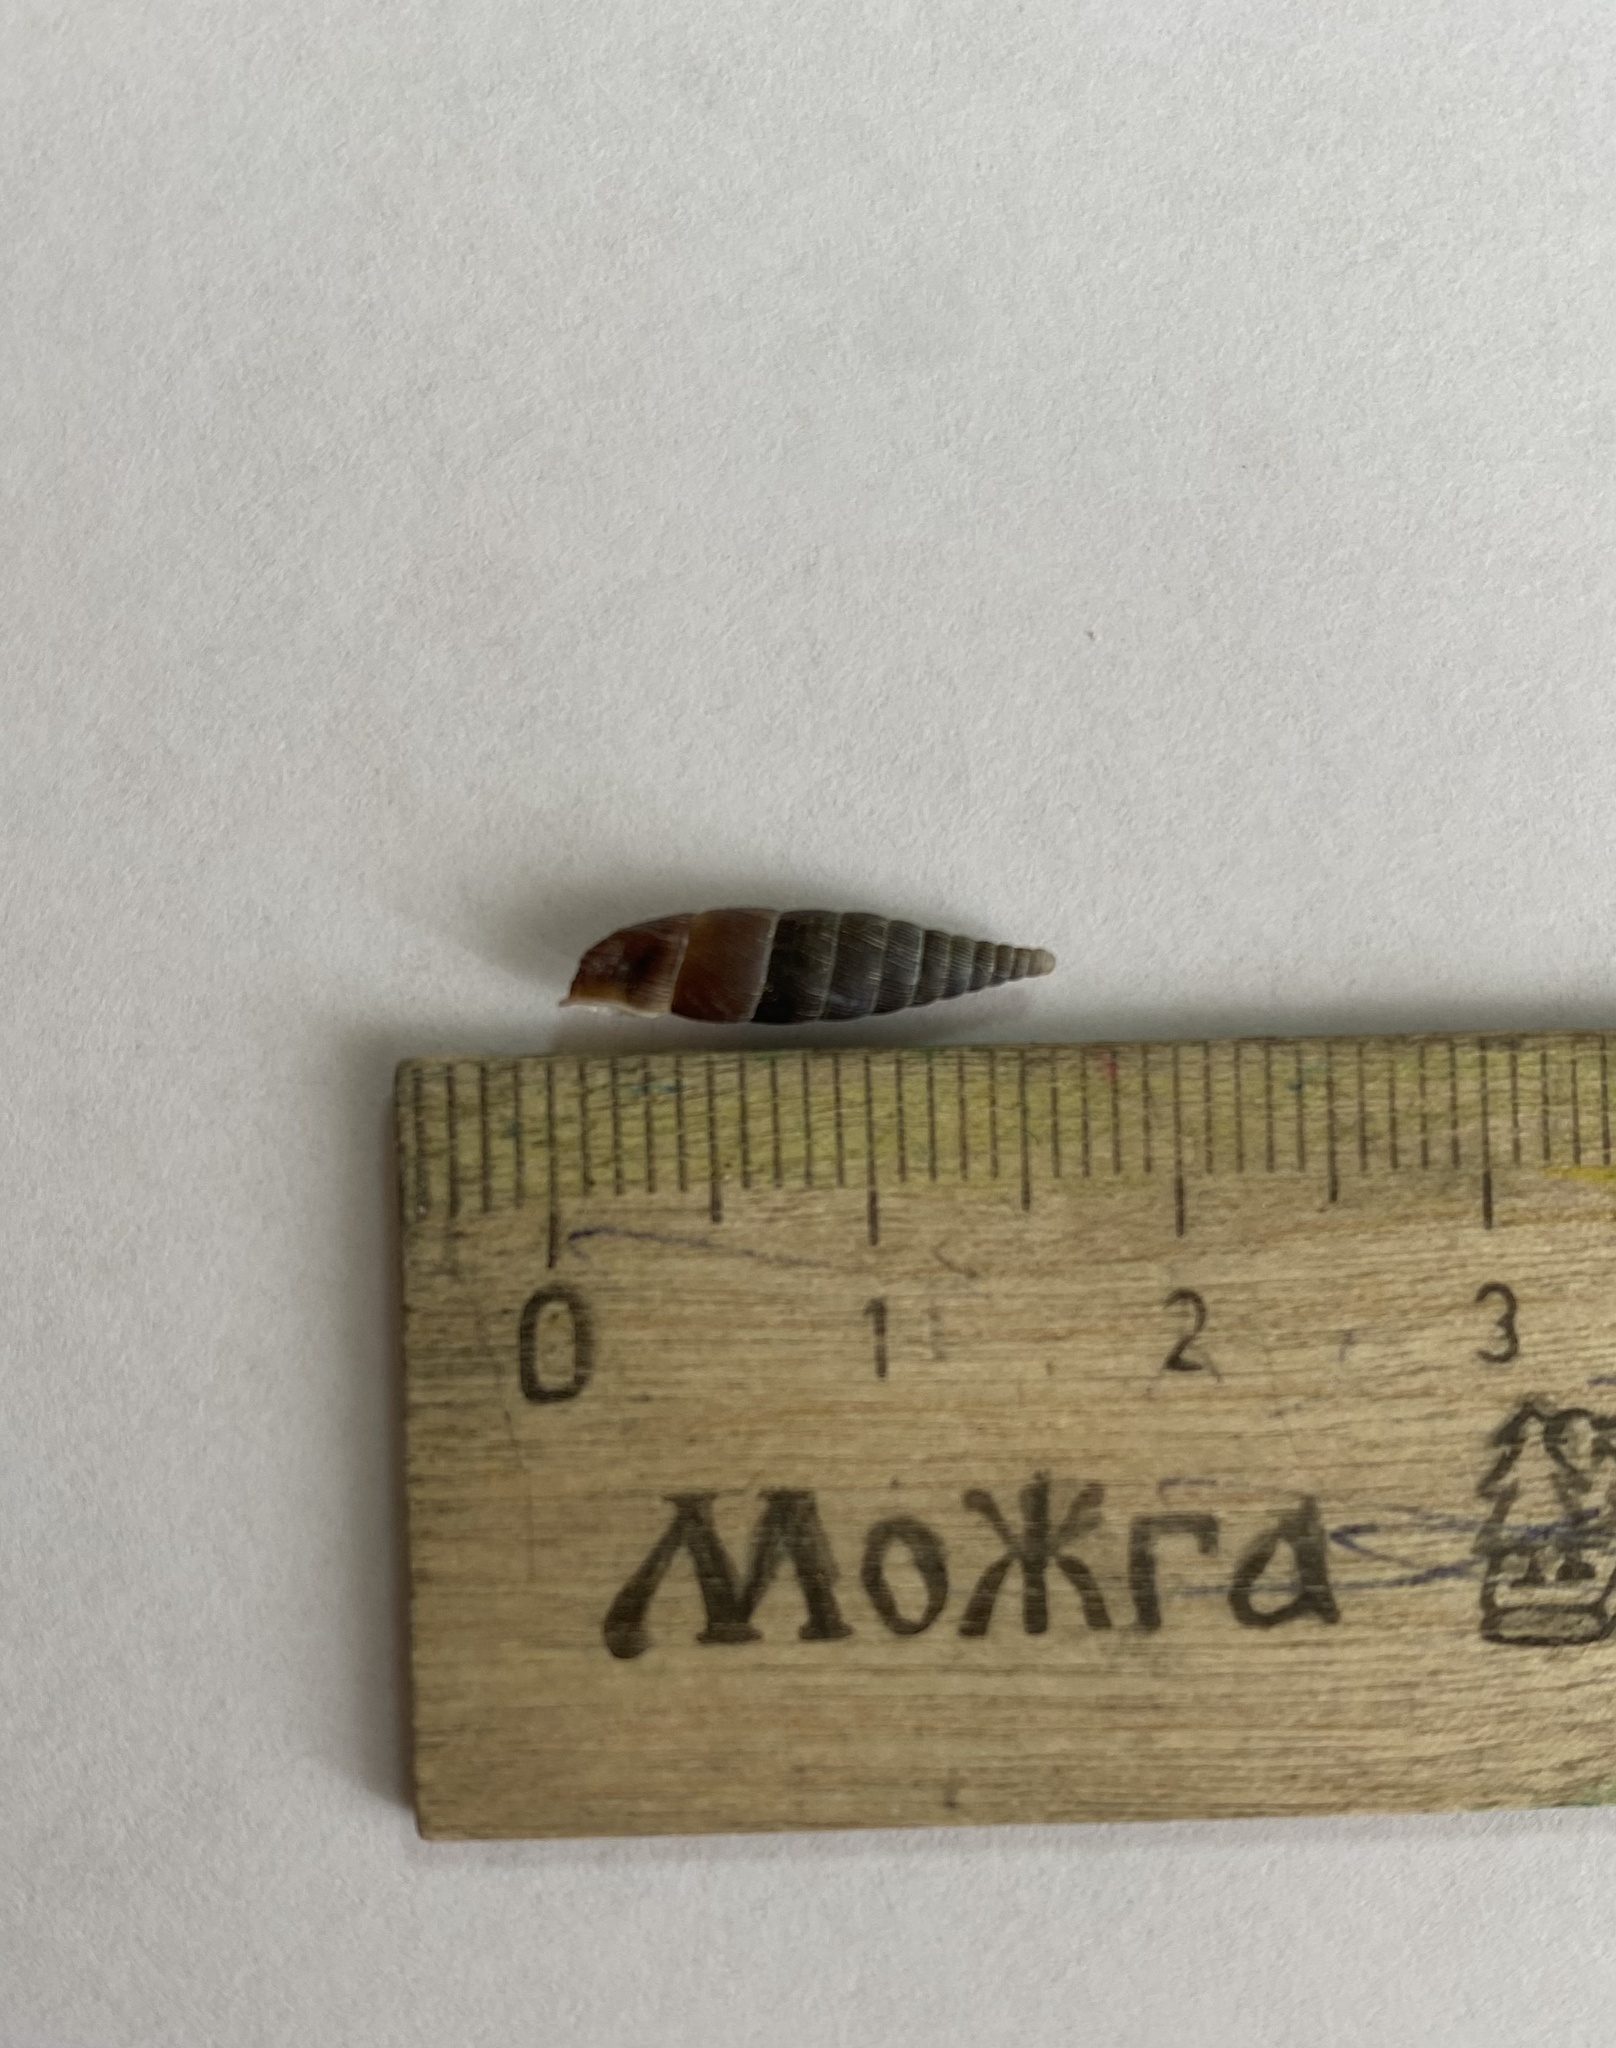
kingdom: Animalia
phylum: Mollusca
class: Gastropoda
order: Stylommatophora
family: Clausiliidae
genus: Scrobifera
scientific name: Scrobifera taurica
